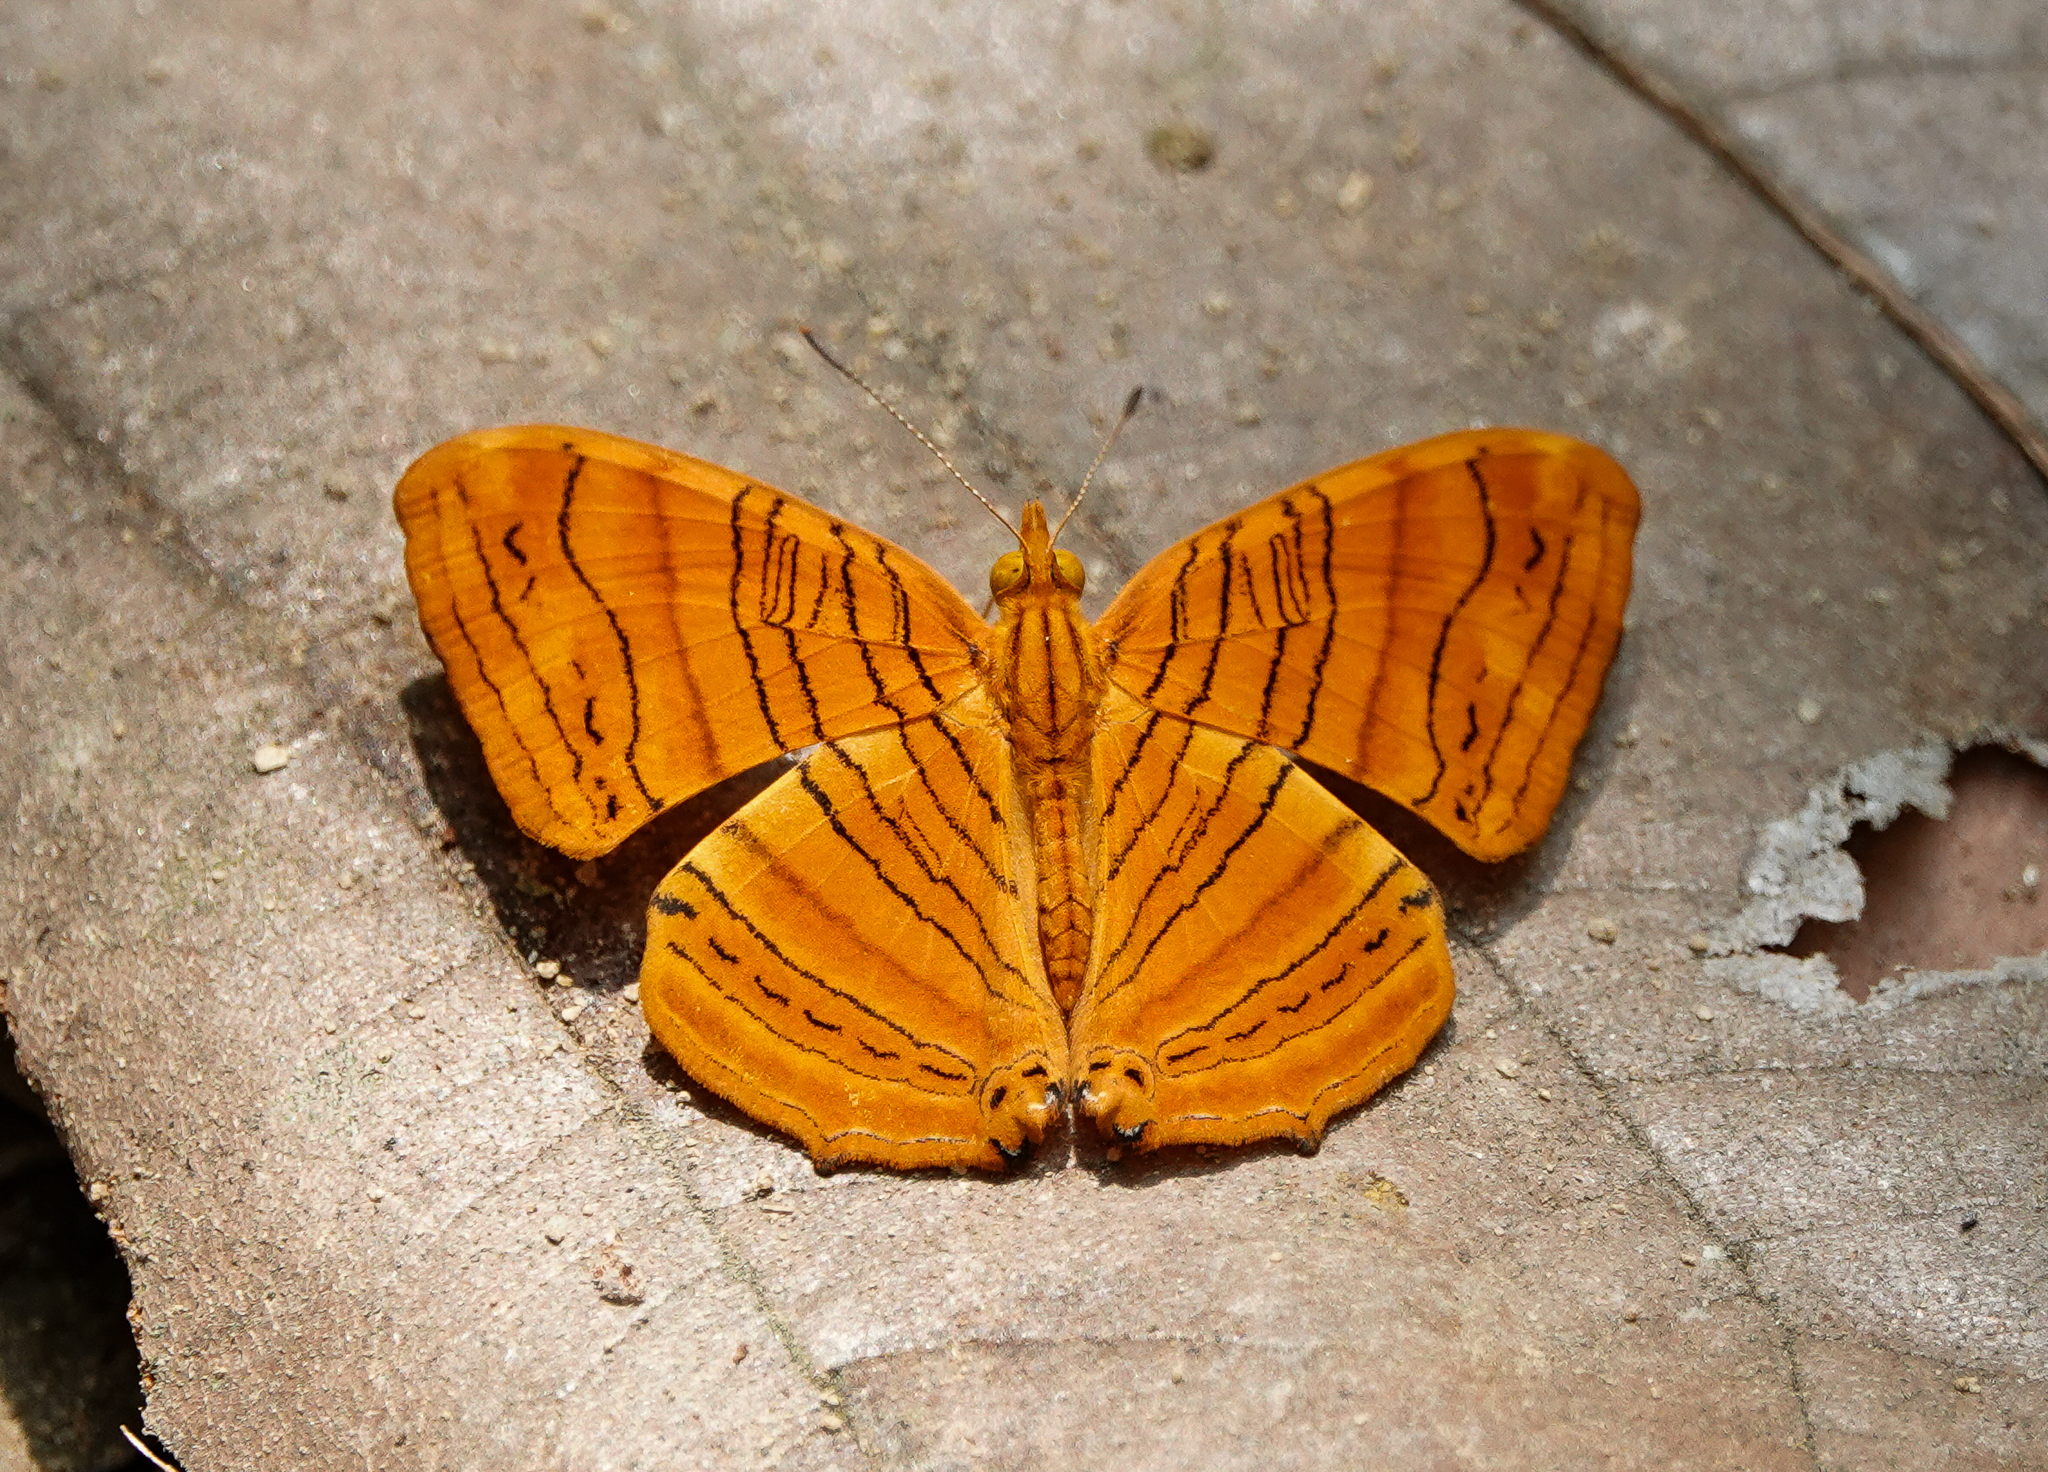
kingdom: Animalia
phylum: Arthropoda
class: Insecta
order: Lepidoptera
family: Nymphalidae
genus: Chersonesia
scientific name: Chersonesia rahria
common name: Wavy maplet
